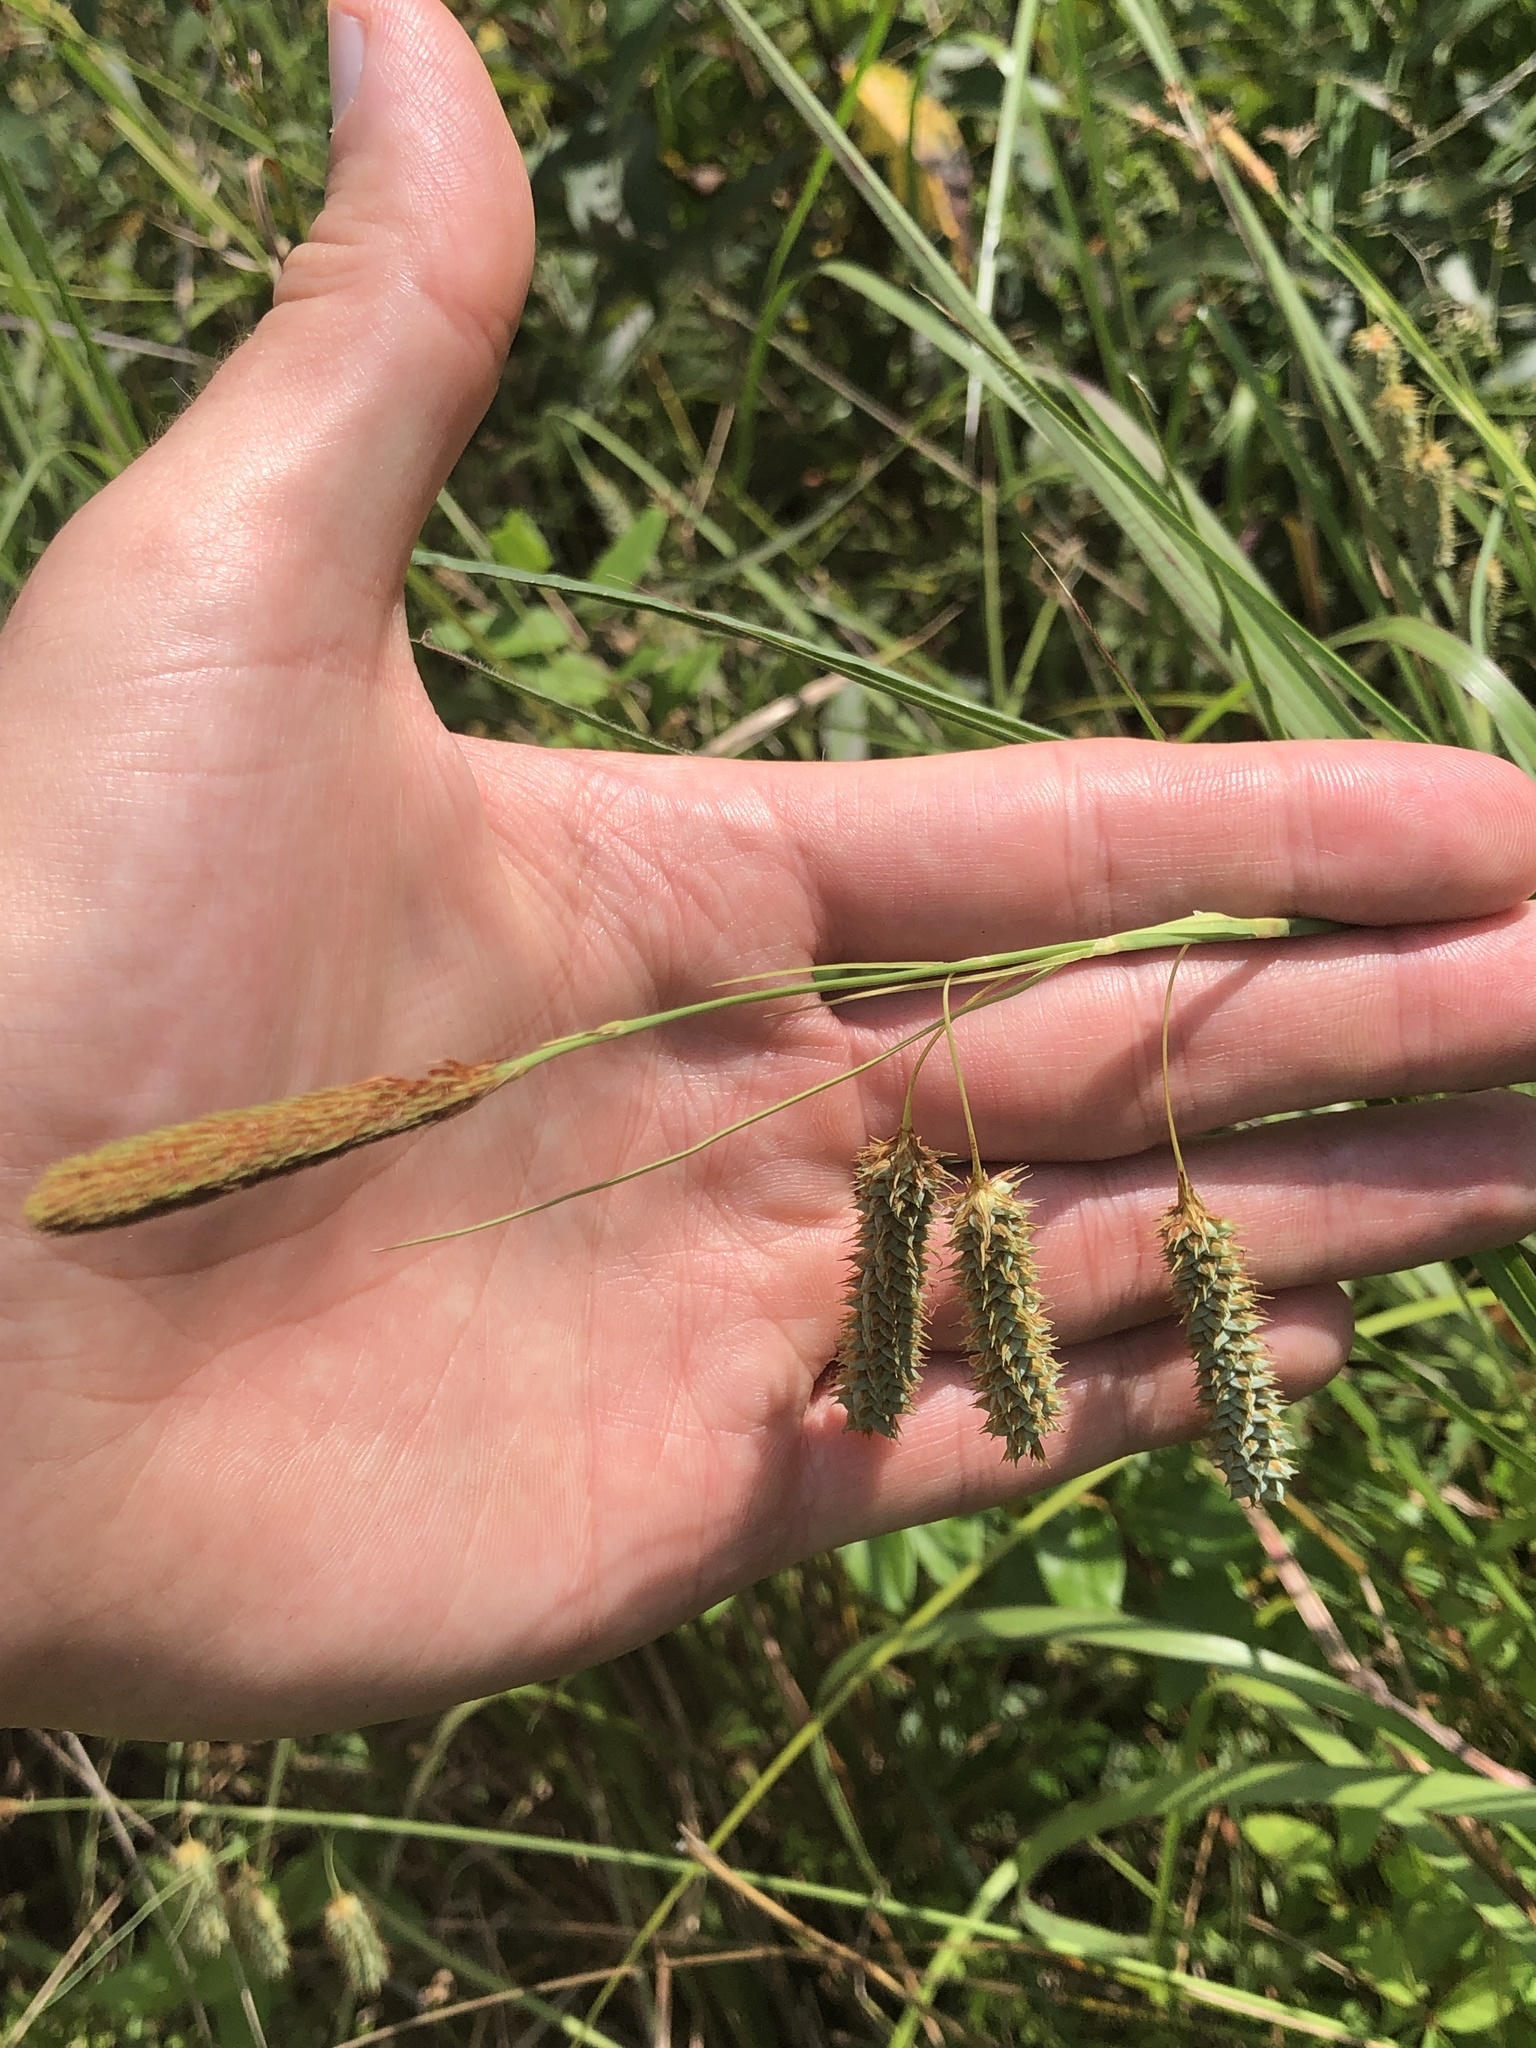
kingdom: Plantae
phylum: Tracheophyta
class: Liliopsida
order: Poales
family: Cyperaceae
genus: Carex
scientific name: Carex glaucescens
